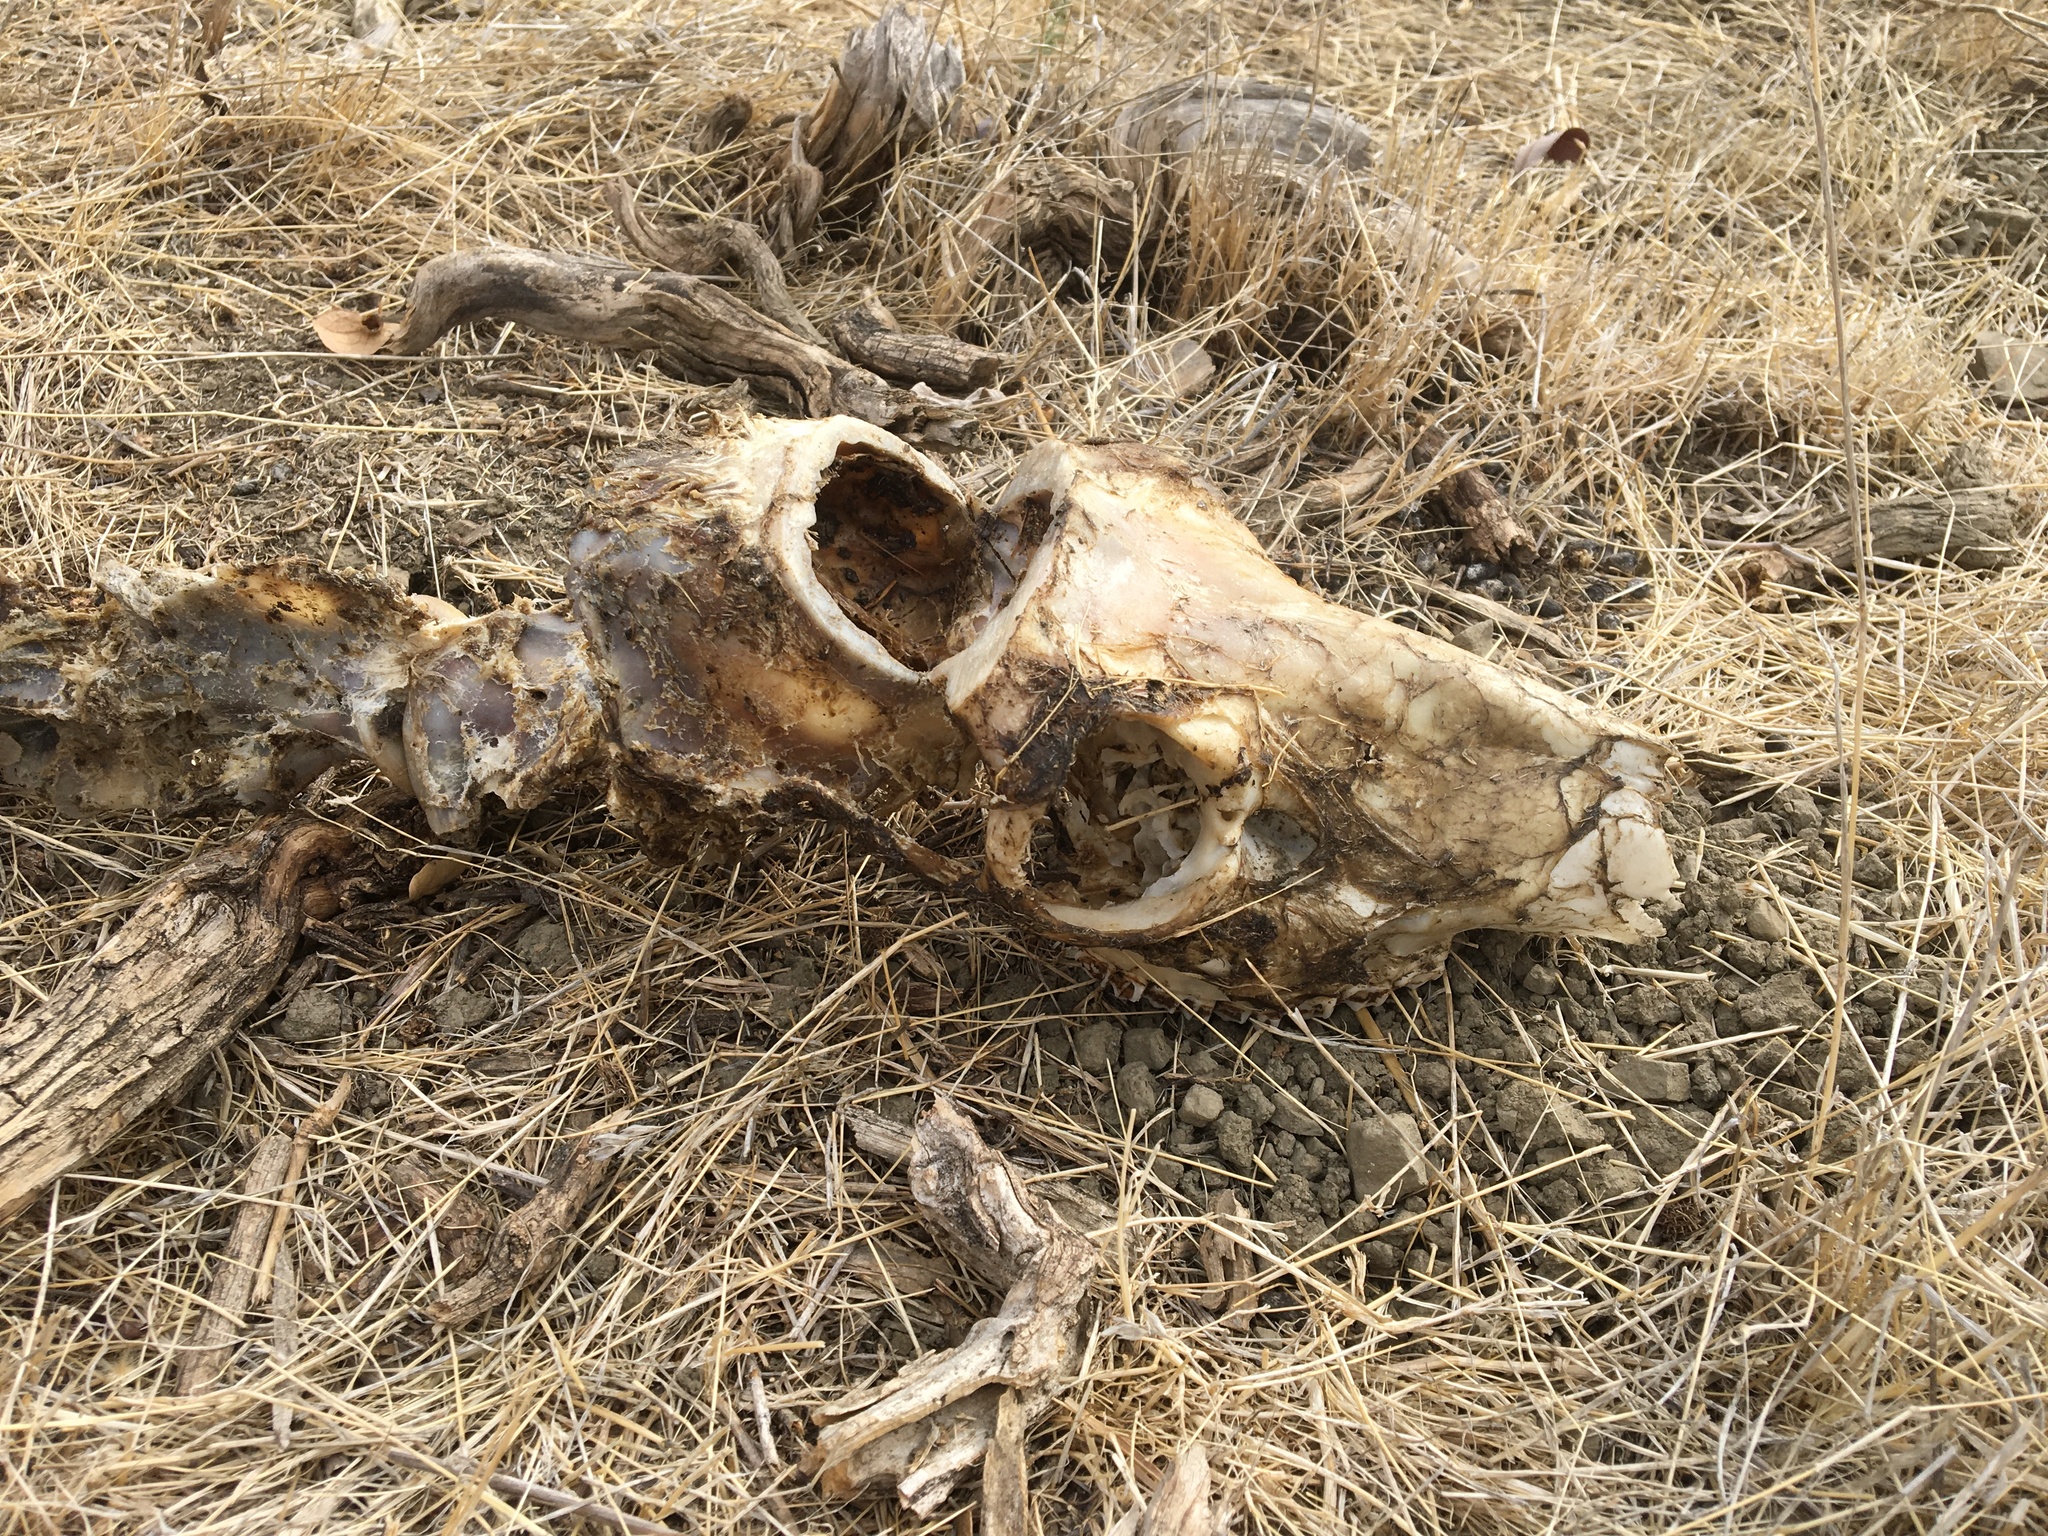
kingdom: Animalia
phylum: Chordata
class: Mammalia
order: Artiodactyla
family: Cervidae
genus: Odocoileus
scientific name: Odocoileus hemionus
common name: Mule deer
